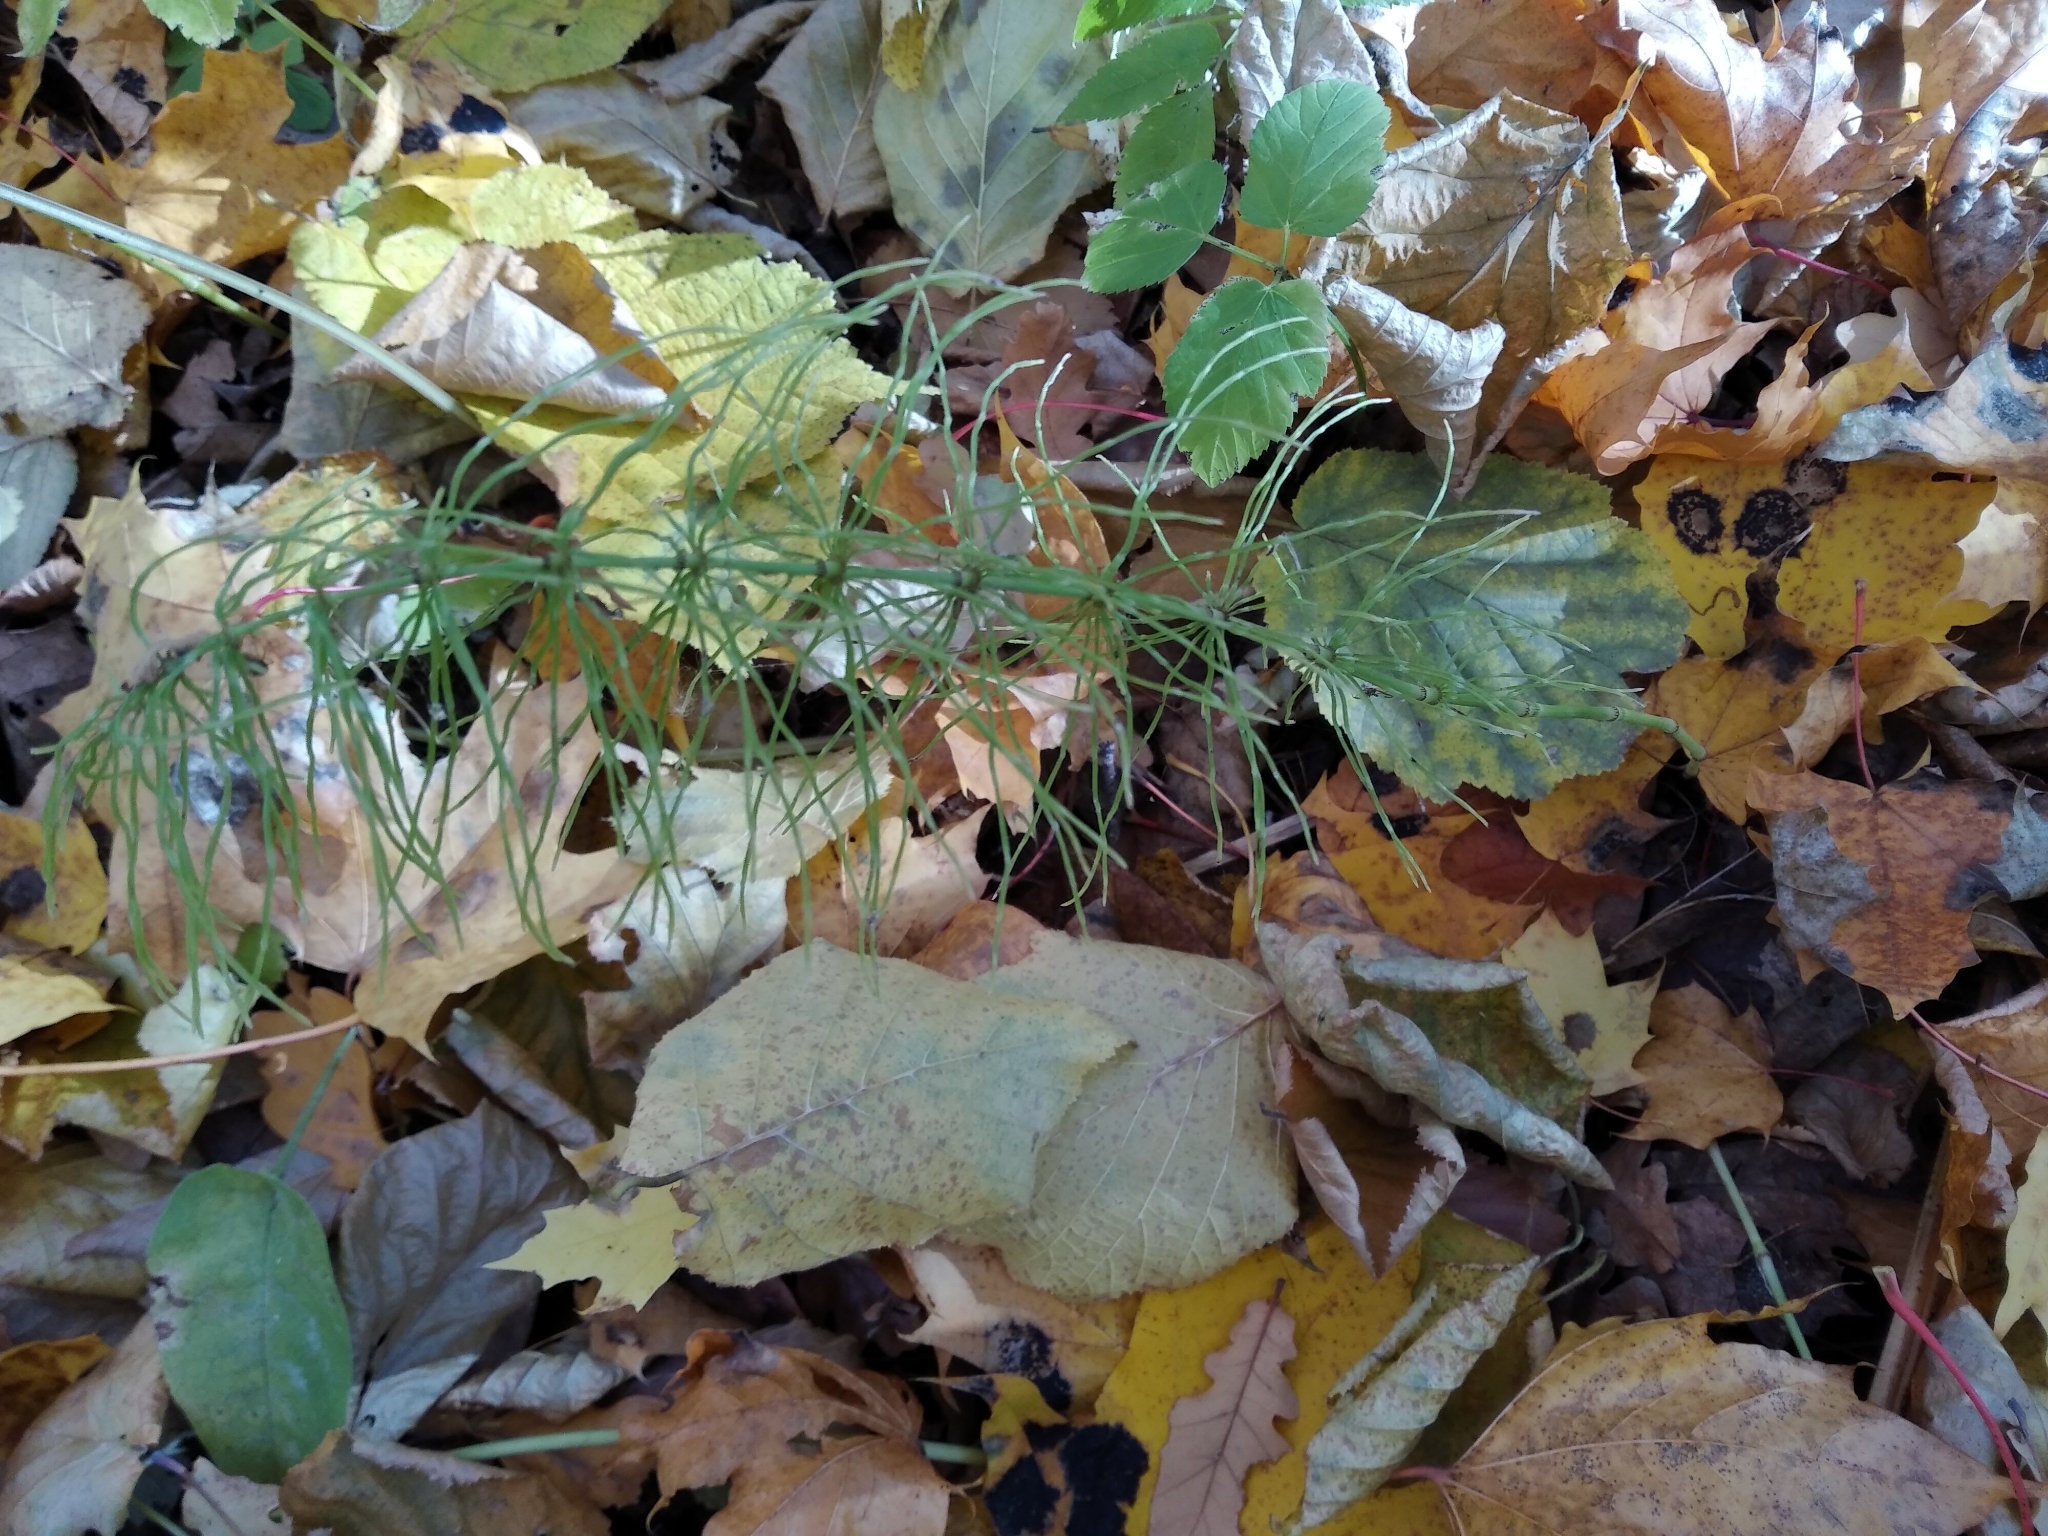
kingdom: Plantae
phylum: Tracheophyta
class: Polypodiopsida
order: Equisetales
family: Equisetaceae
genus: Equisetum
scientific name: Equisetum pratense
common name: Meadow horsetail
